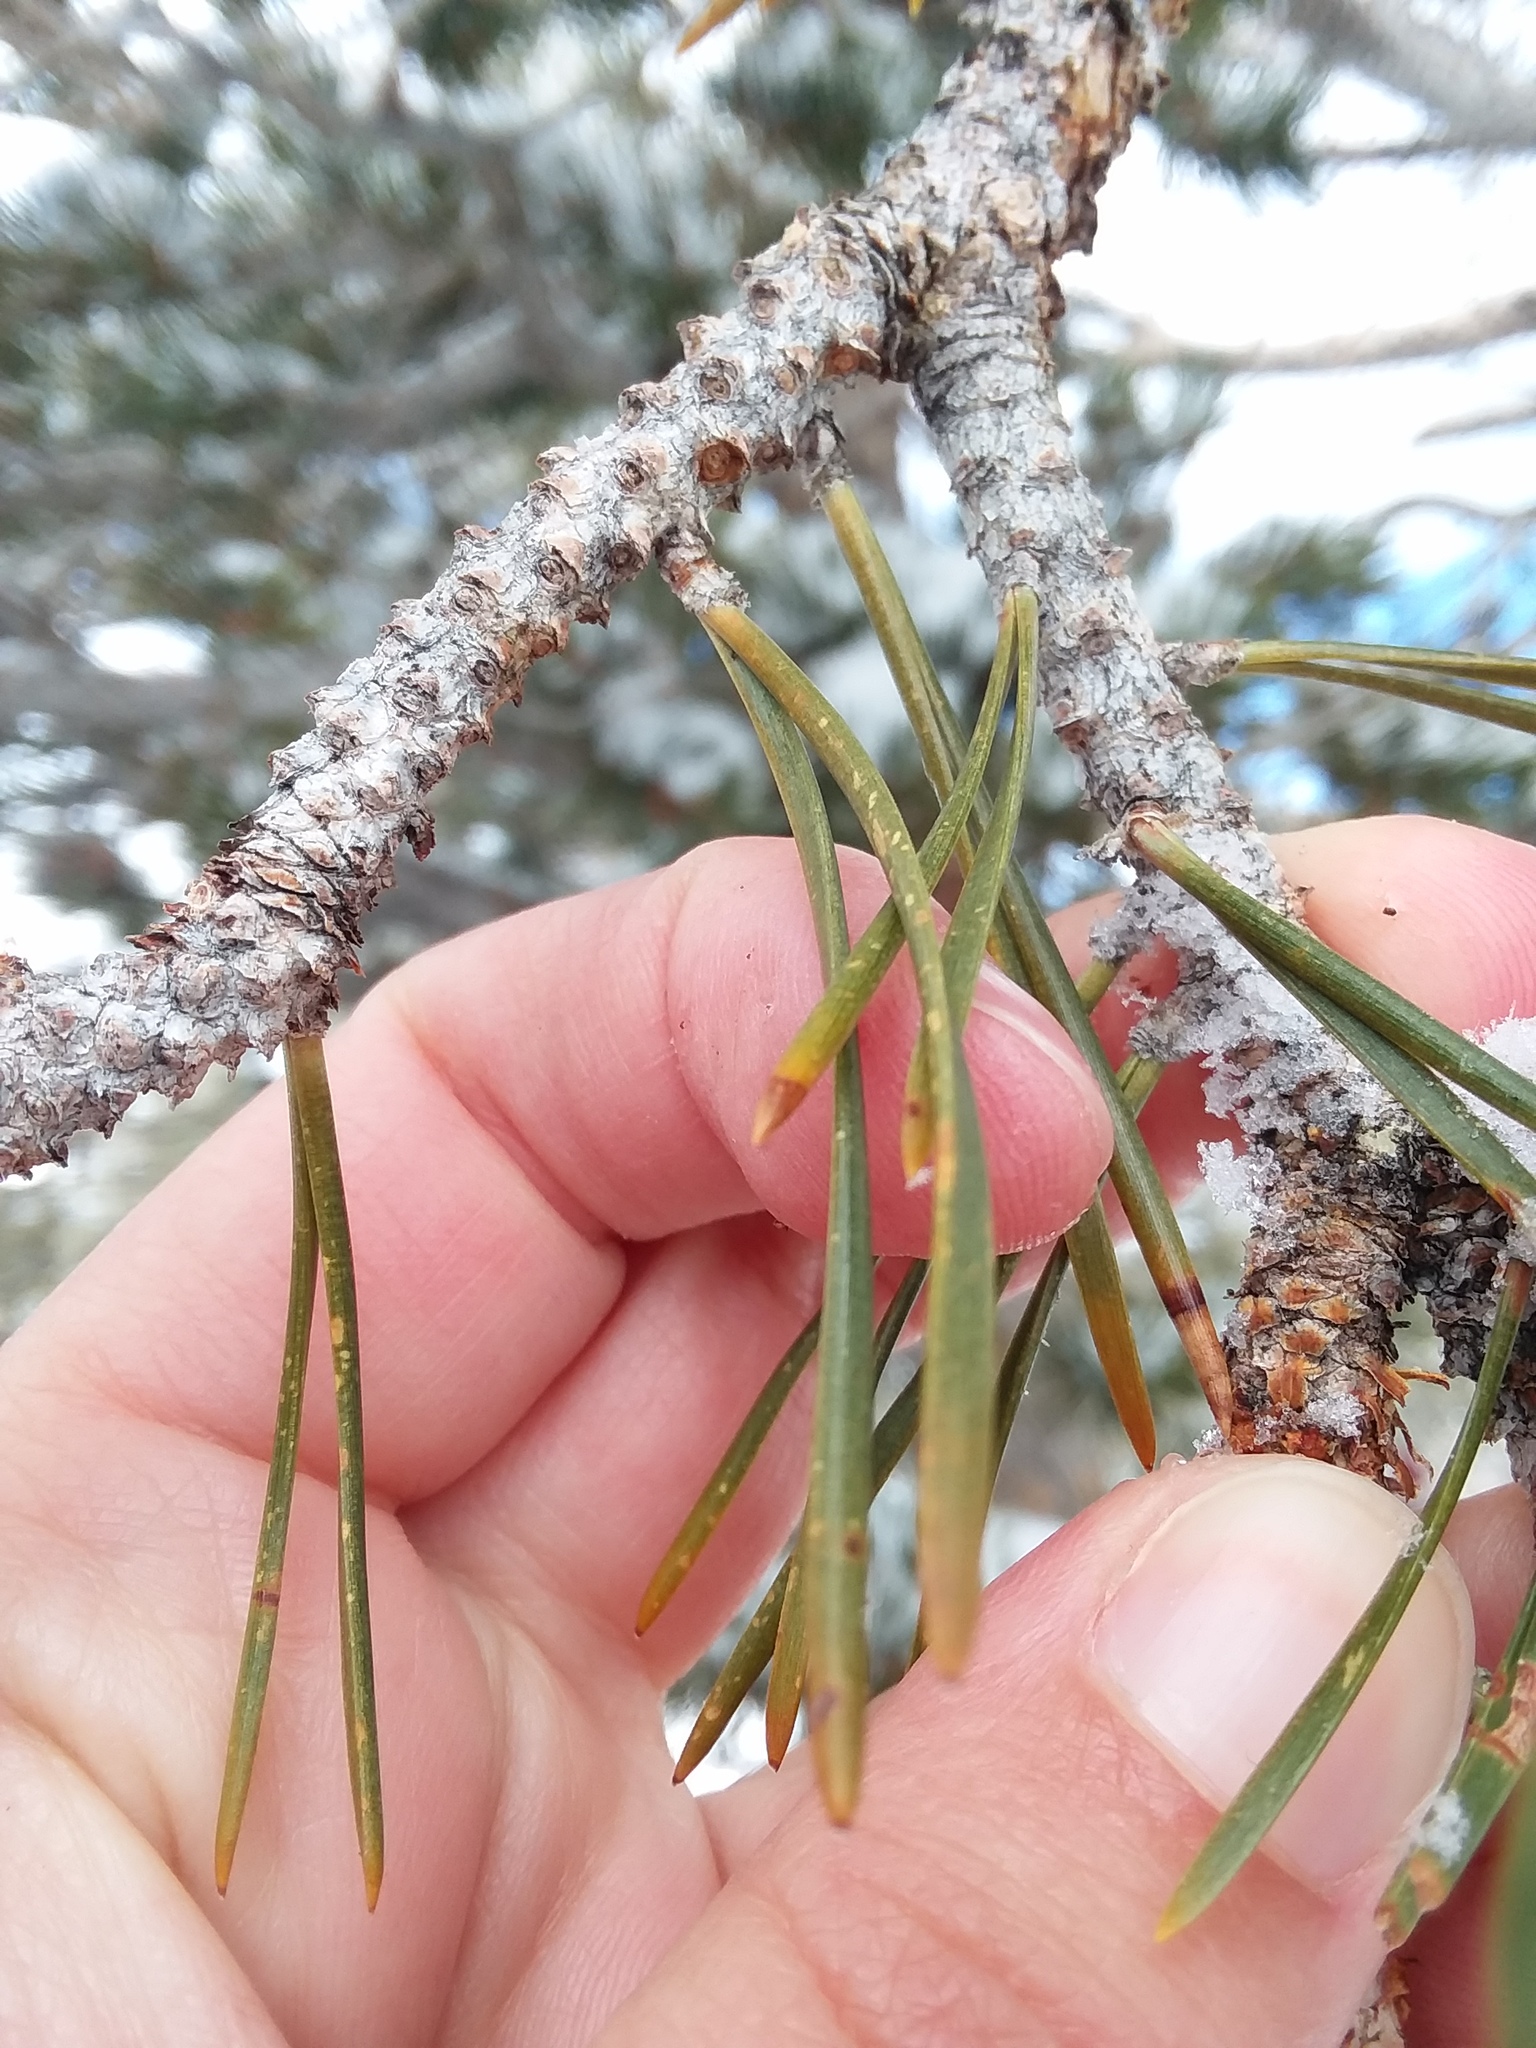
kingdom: Plantae
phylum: Tracheophyta
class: Pinopsida
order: Pinales
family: Pinaceae
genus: Pinus
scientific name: Pinus contorta
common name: Lodgepole pine
